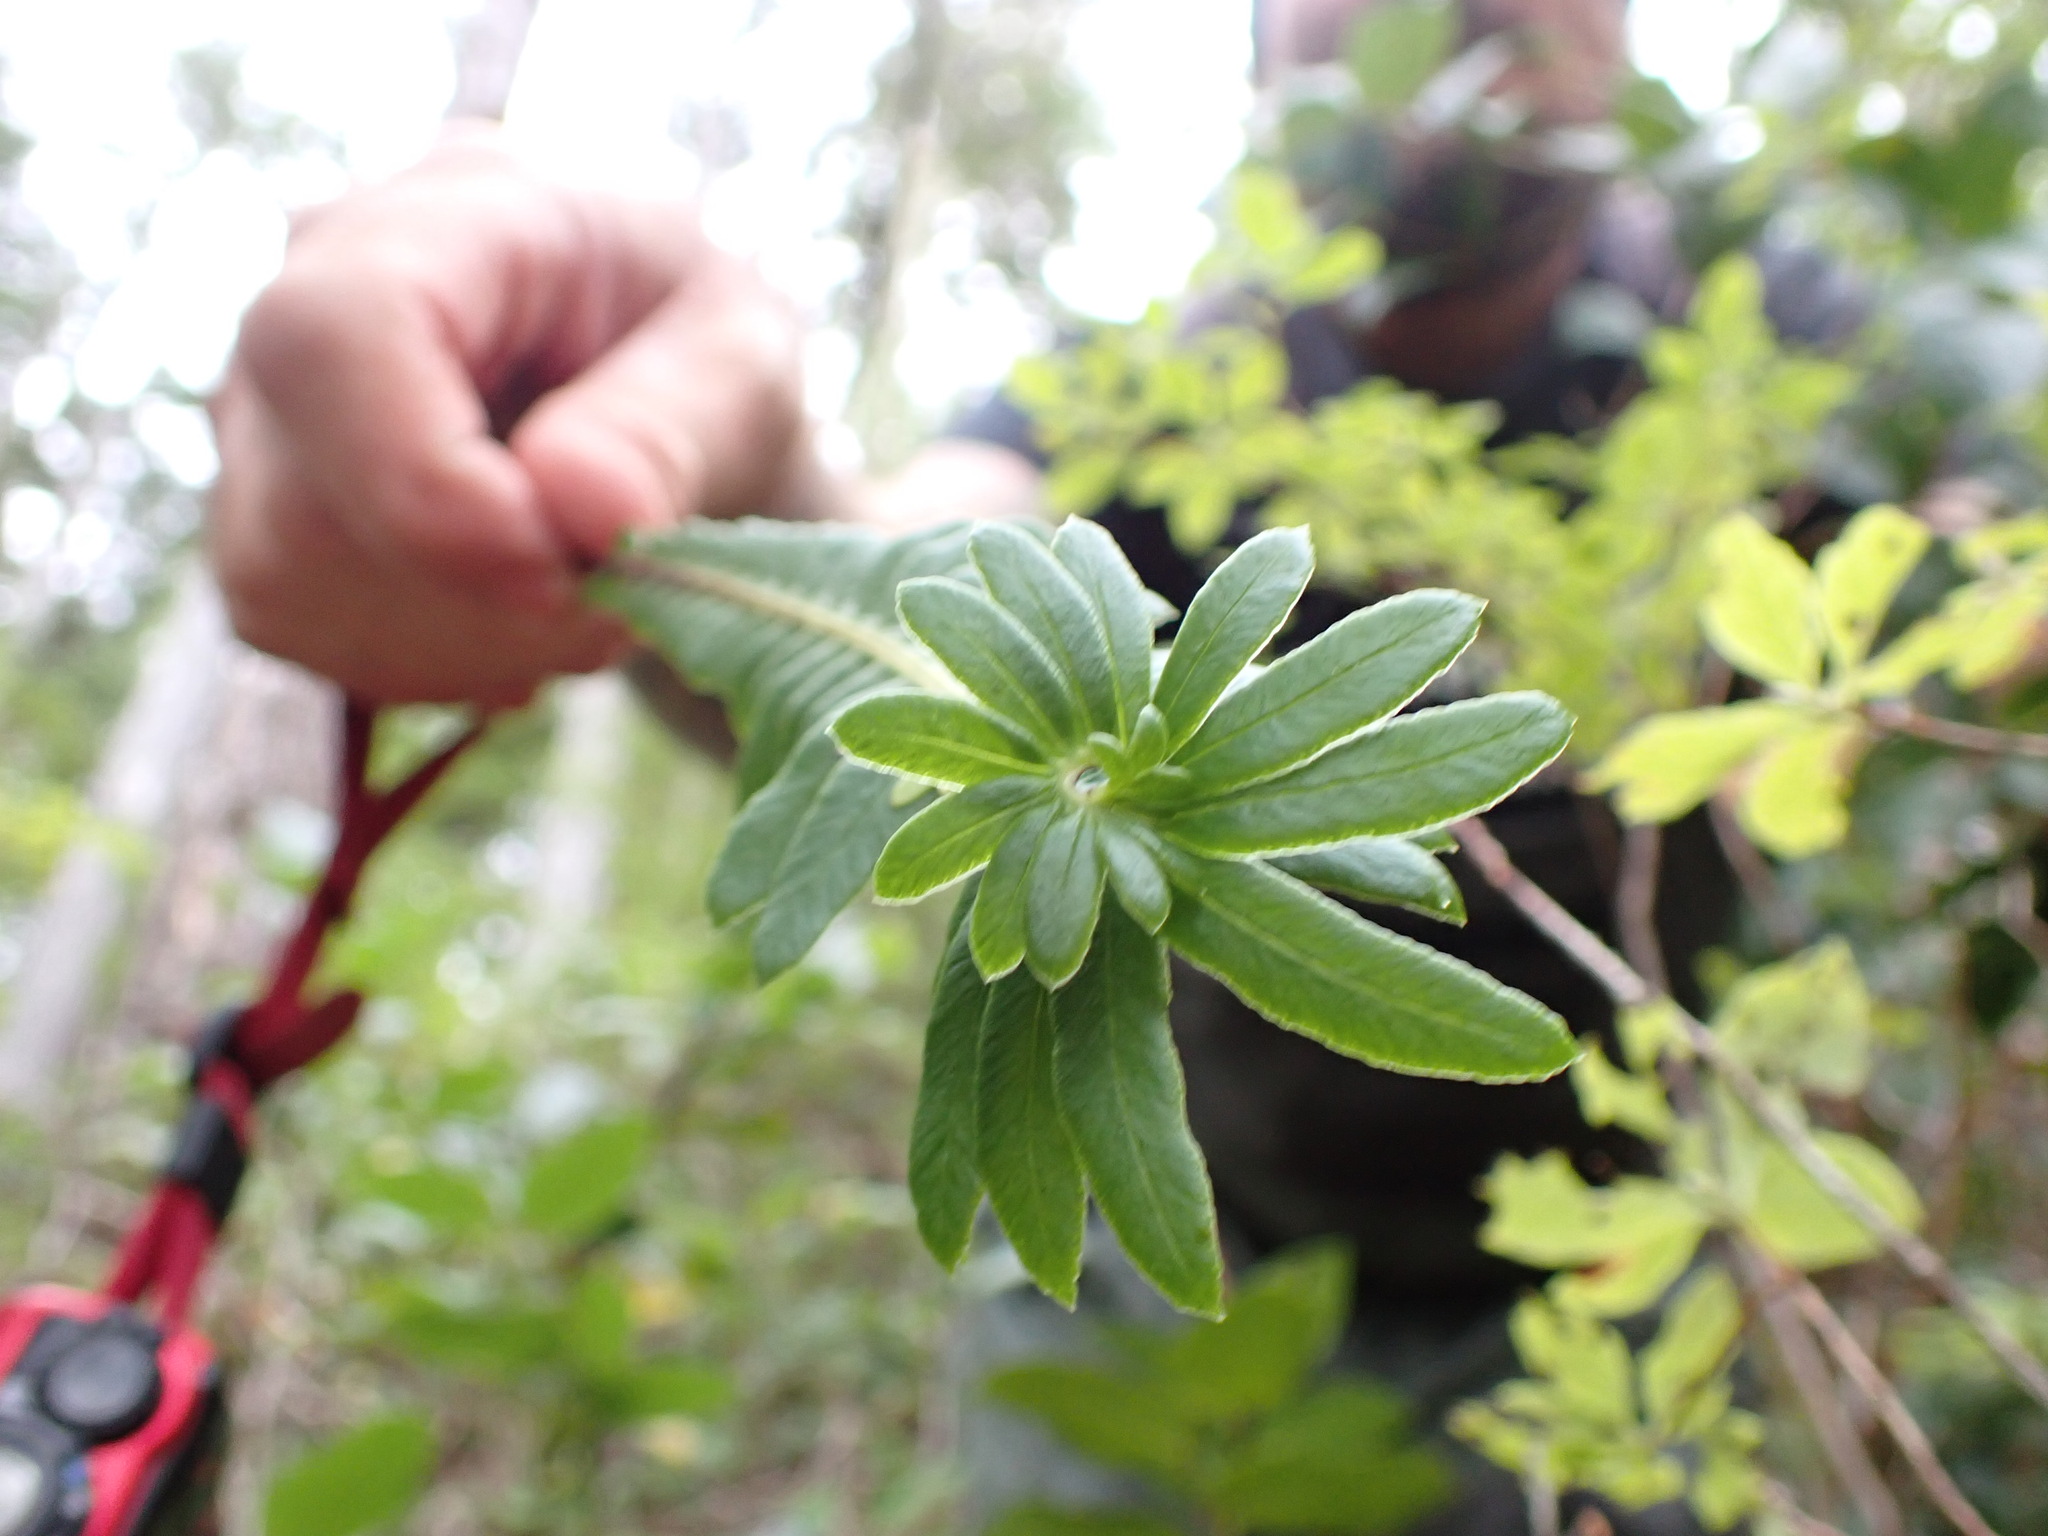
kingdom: Plantae
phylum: Tracheophyta
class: Polypodiopsida
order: Polypodiales
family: Blechnaceae
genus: Struthiopteris
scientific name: Struthiopteris spicant
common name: Deer fern
